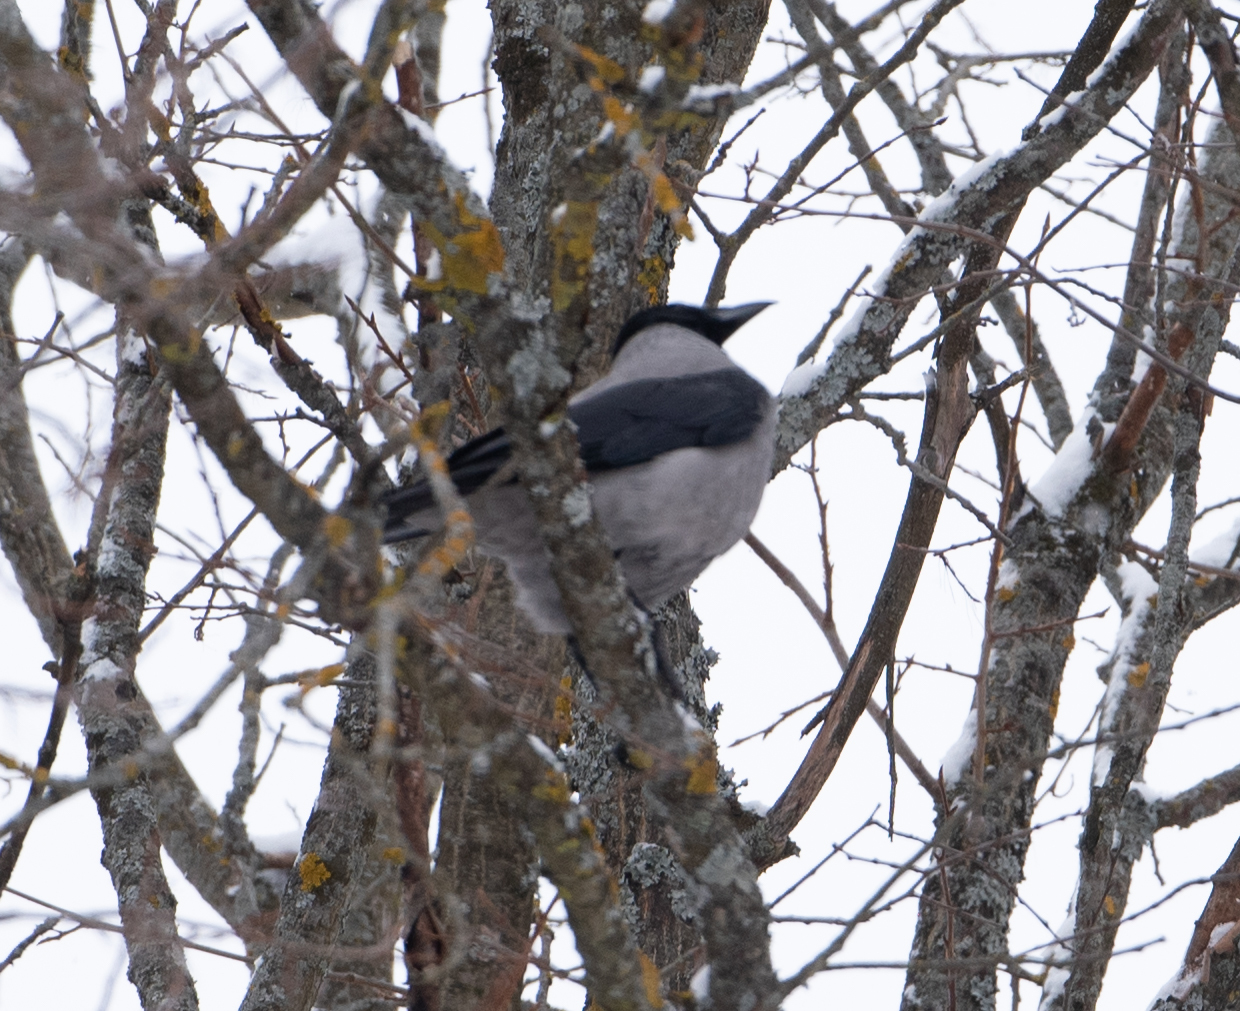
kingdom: Animalia
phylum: Chordata
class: Aves
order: Passeriformes
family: Corvidae
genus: Corvus
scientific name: Corvus cornix
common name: Hooded crow
